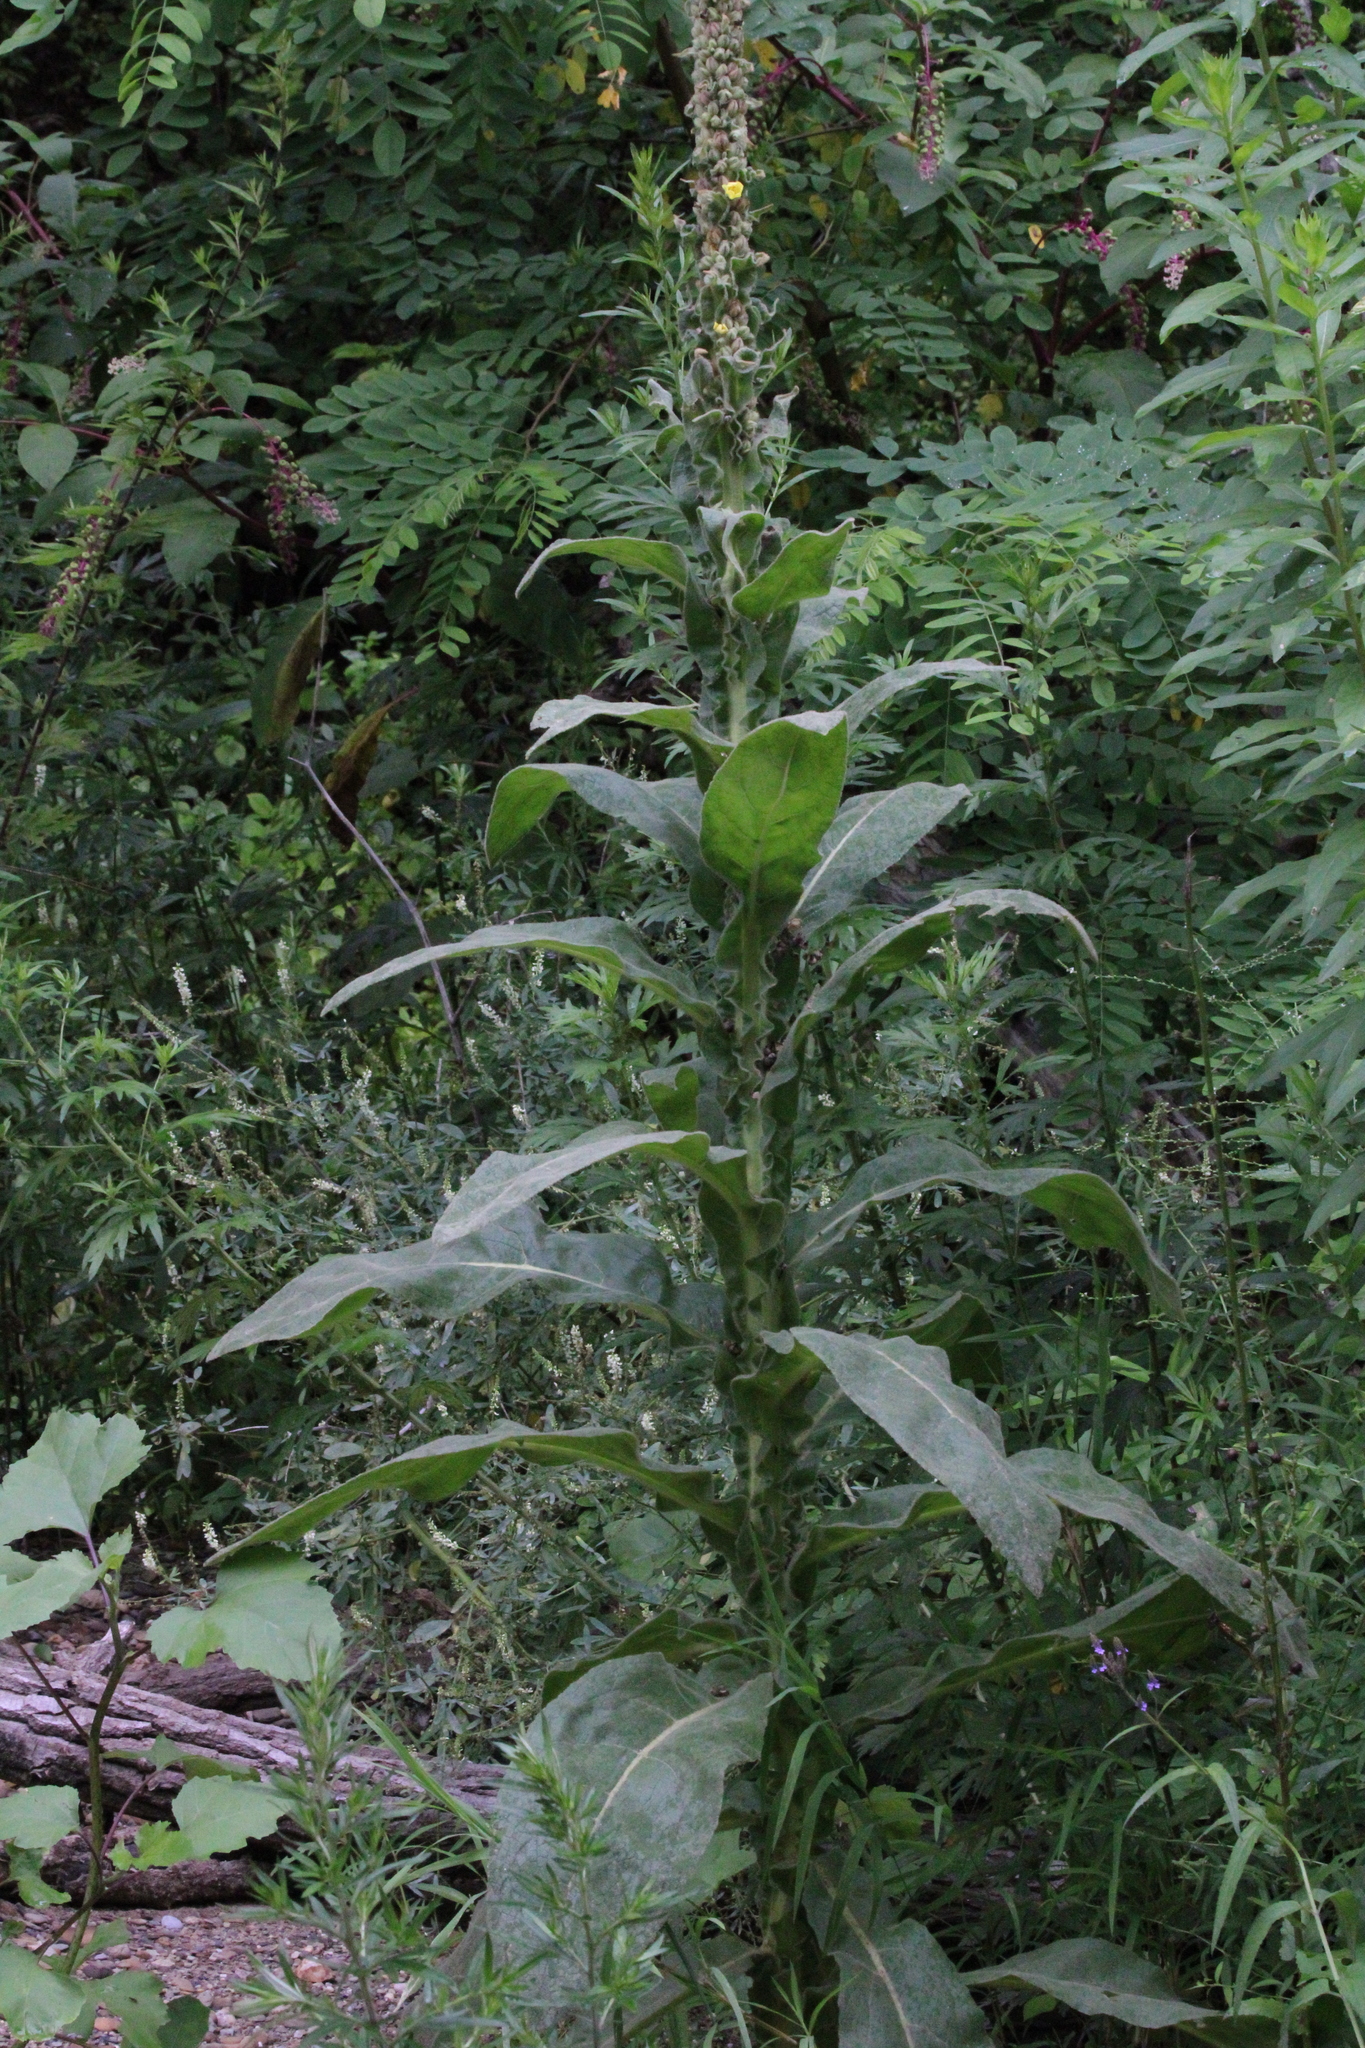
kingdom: Plantae
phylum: Tracheophyta
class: Magnoliopsida
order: Lamiales
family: Scrophulariaceae
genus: Verbascum
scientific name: Verbascum thapsus
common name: Common mullein
